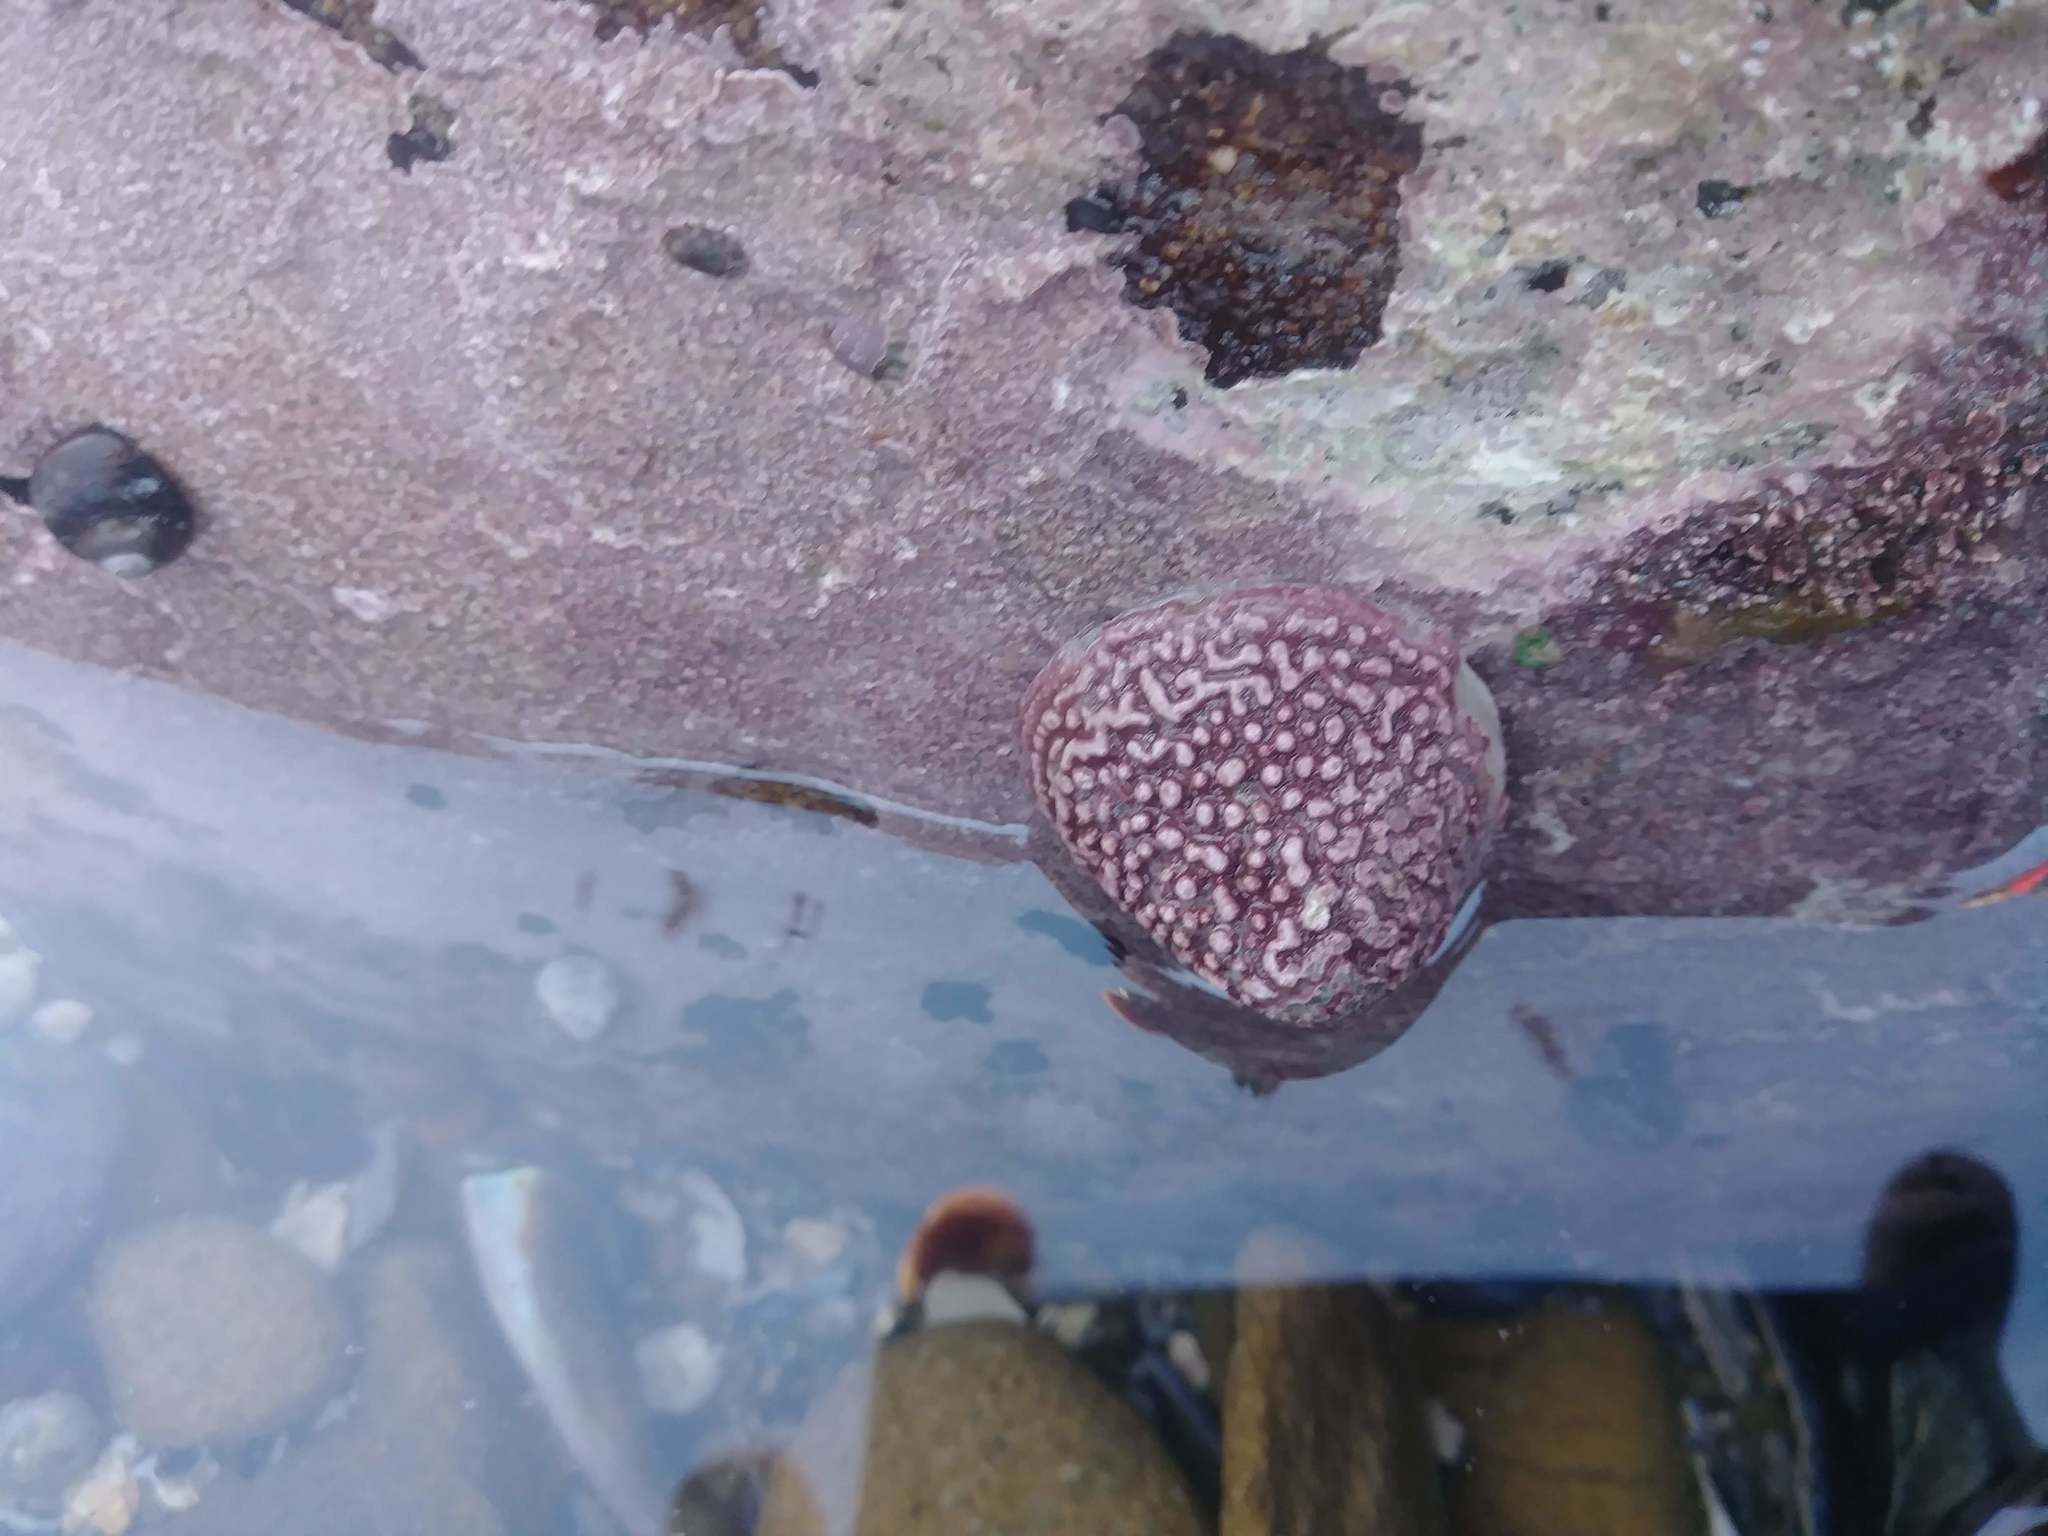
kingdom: Animalia
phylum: Mollusca
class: Gastropoda
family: Acmaeidae
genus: Acmaea
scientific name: Acmaea mitra
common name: Pacific white cap limpet
